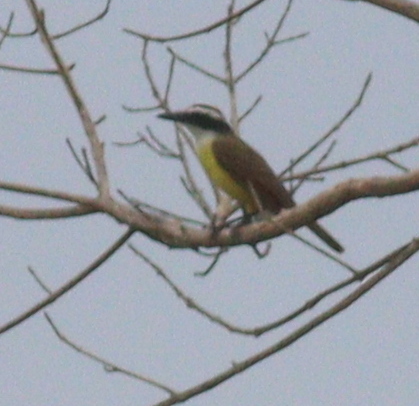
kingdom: Animalia
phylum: Chordata
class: Aves
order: Passeriformes
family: Tyrannidae
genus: Pitangus
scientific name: Pitangus sulphuratus
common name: Great kiskadee
